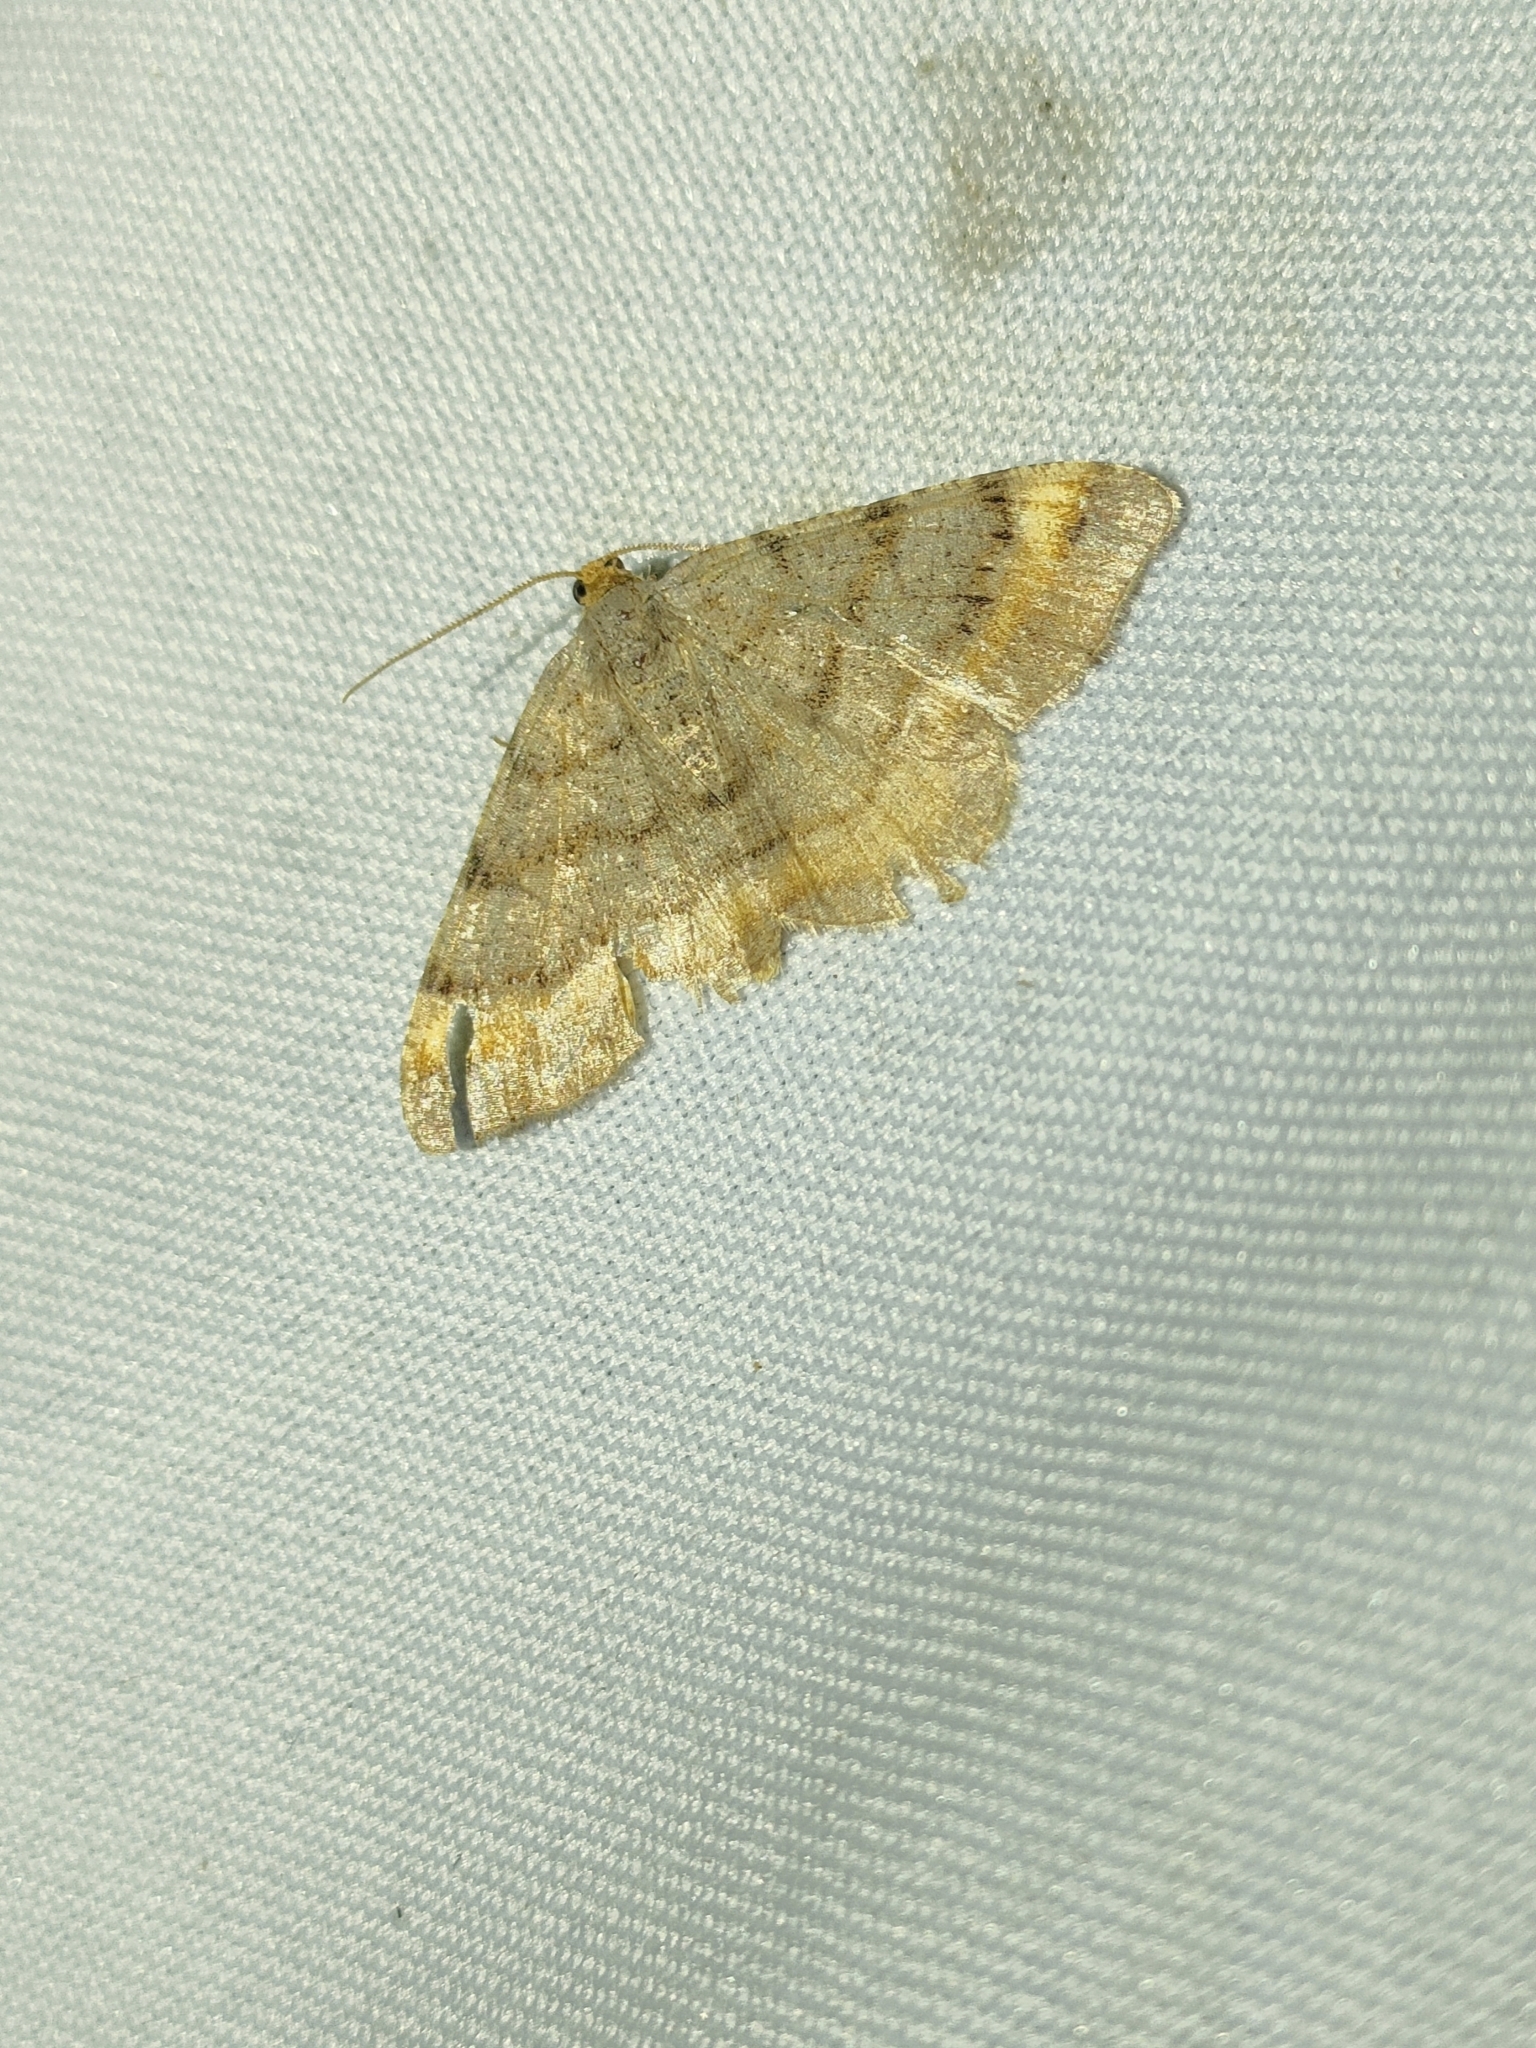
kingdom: Animalia
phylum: Arthropoda
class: Insecta
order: Lepidoptera
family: Geometridae
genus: Macaria
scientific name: Macaria liturata
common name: Tawny-barred angle
